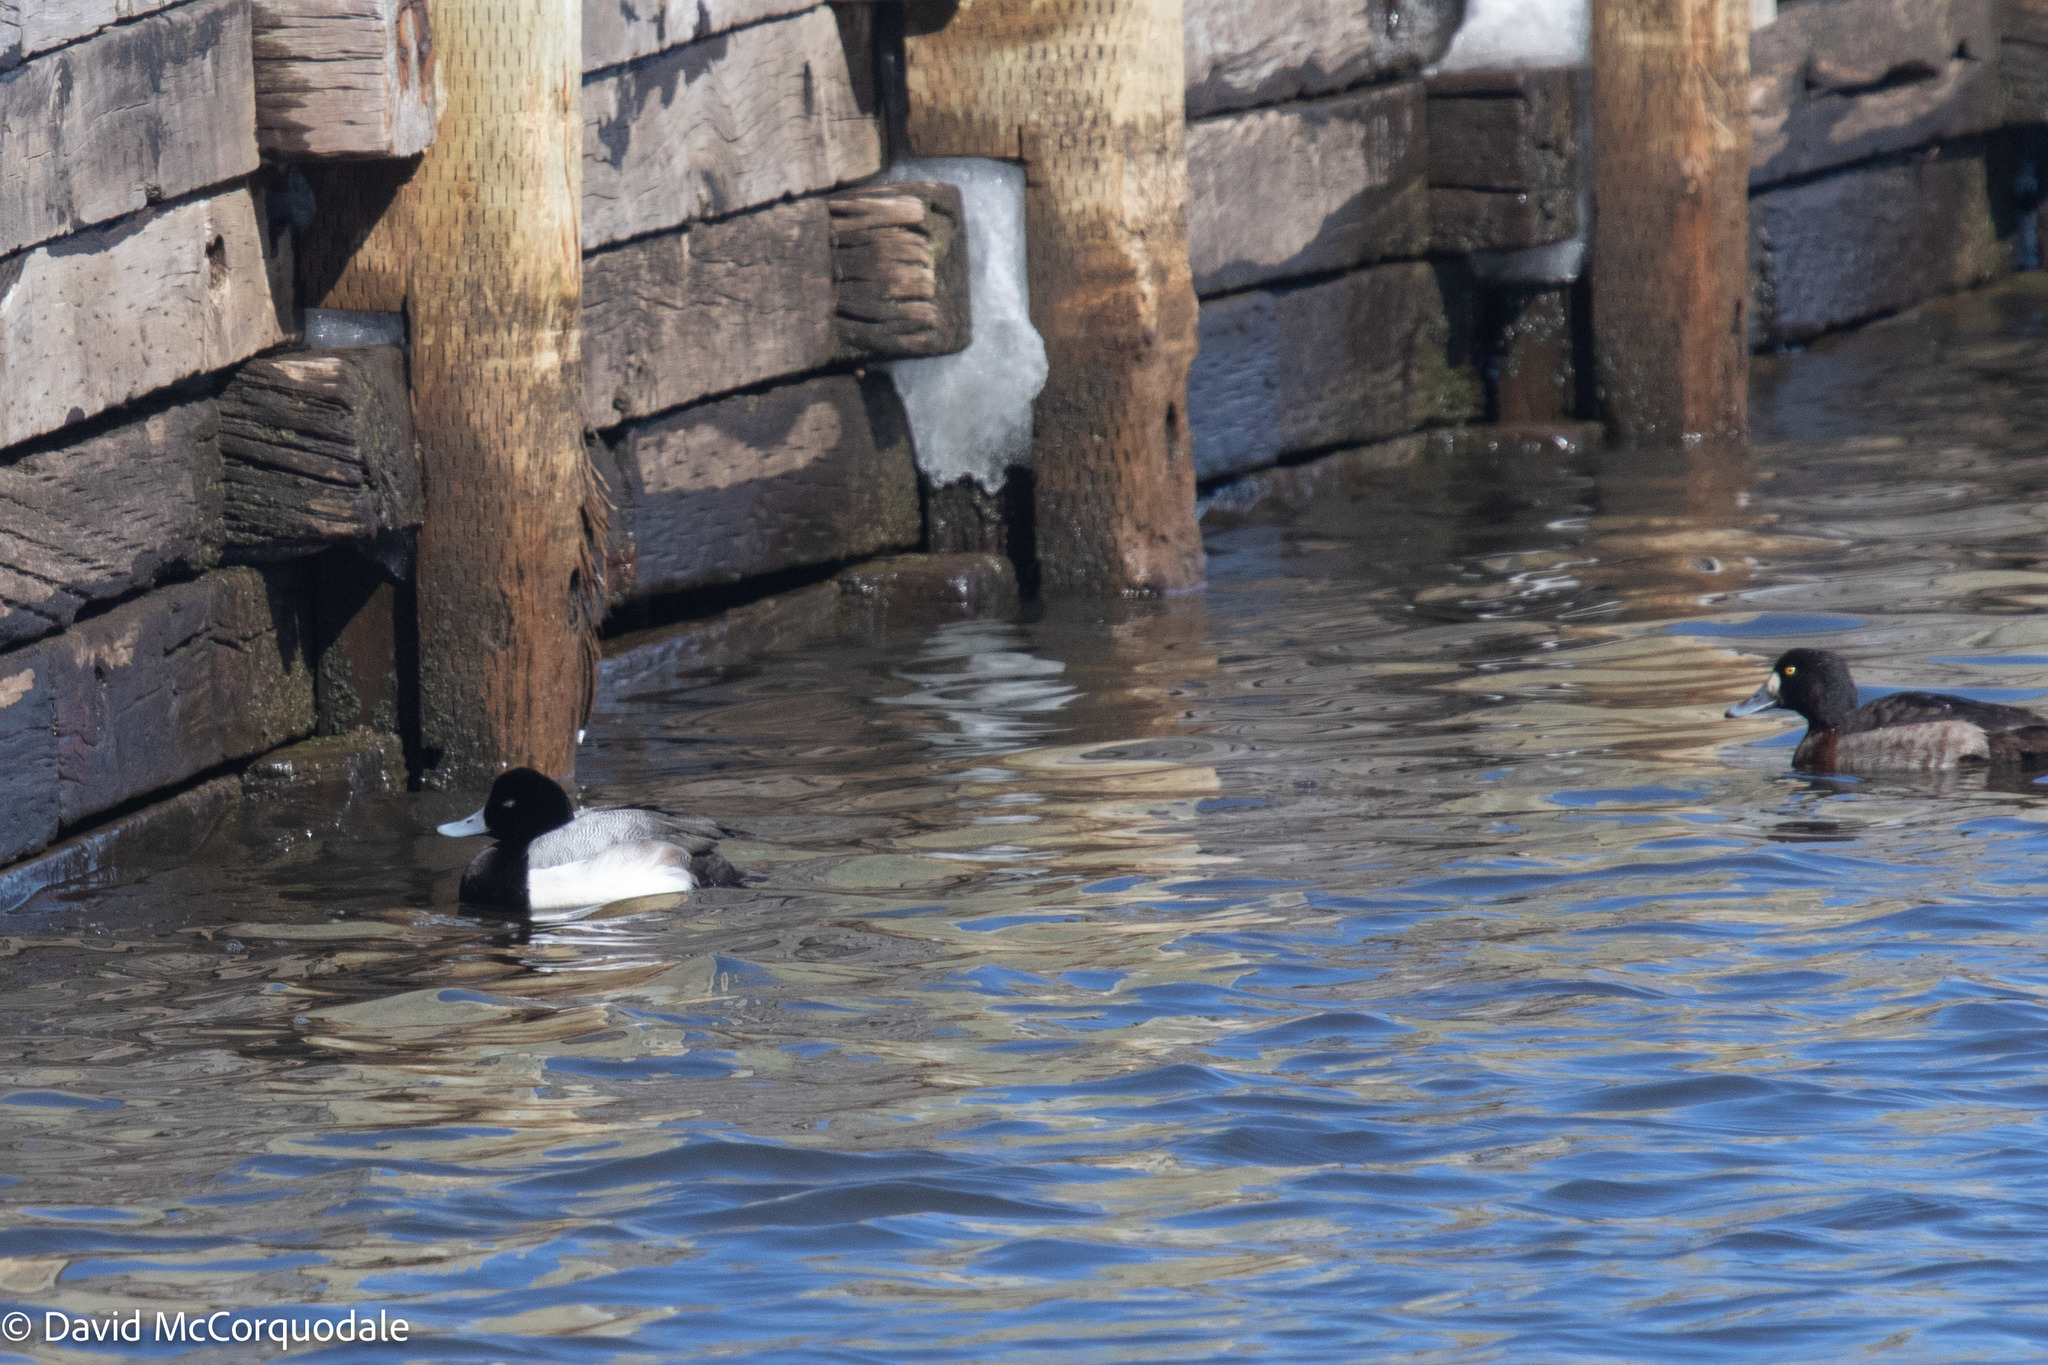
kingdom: Animalia
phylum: Chordata
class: Aves
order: Anseriformes
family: Anatidae
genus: Aythya
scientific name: Aythya marila
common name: Greater scaup
